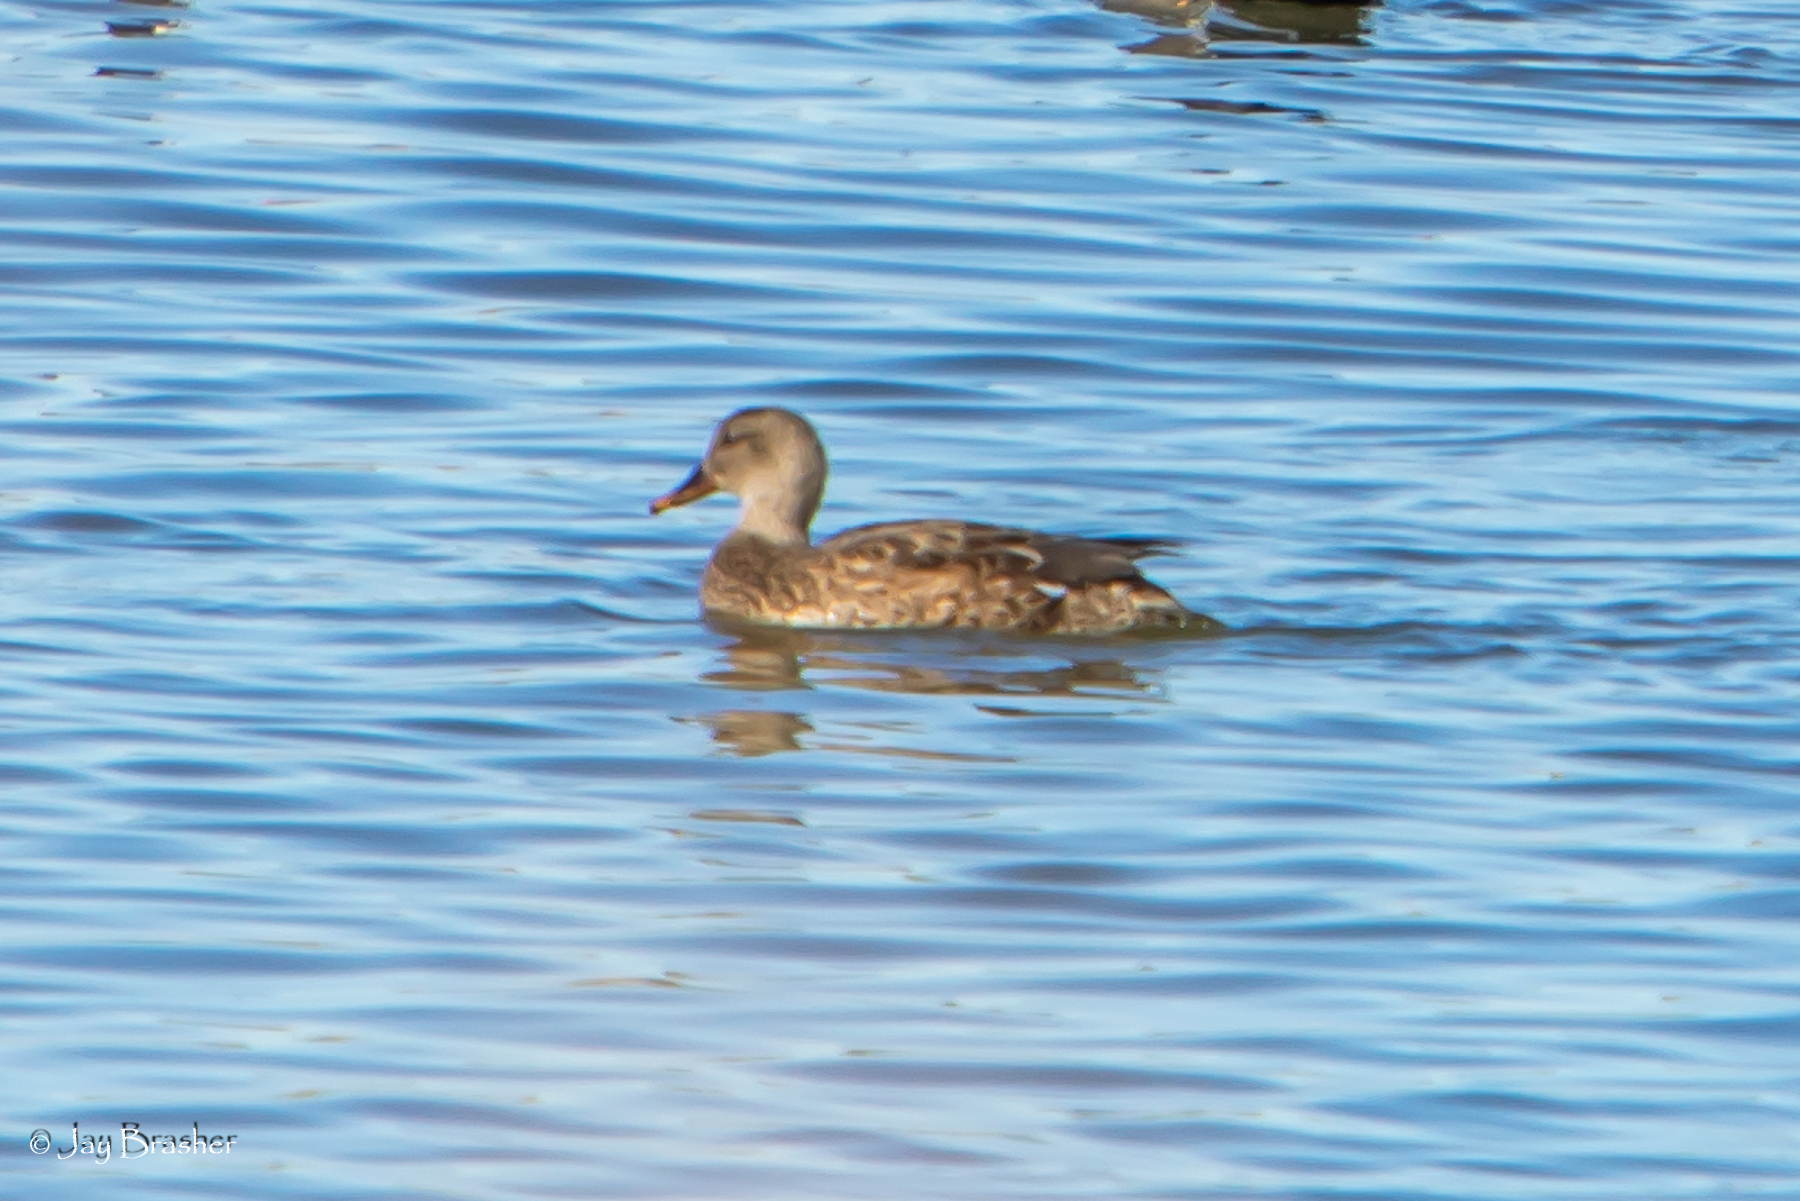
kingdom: Animalia
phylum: Chordata
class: Aves
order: Anseriformes
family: Anatidae
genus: Anas
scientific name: Anas platyrhynchos
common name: Mallard
